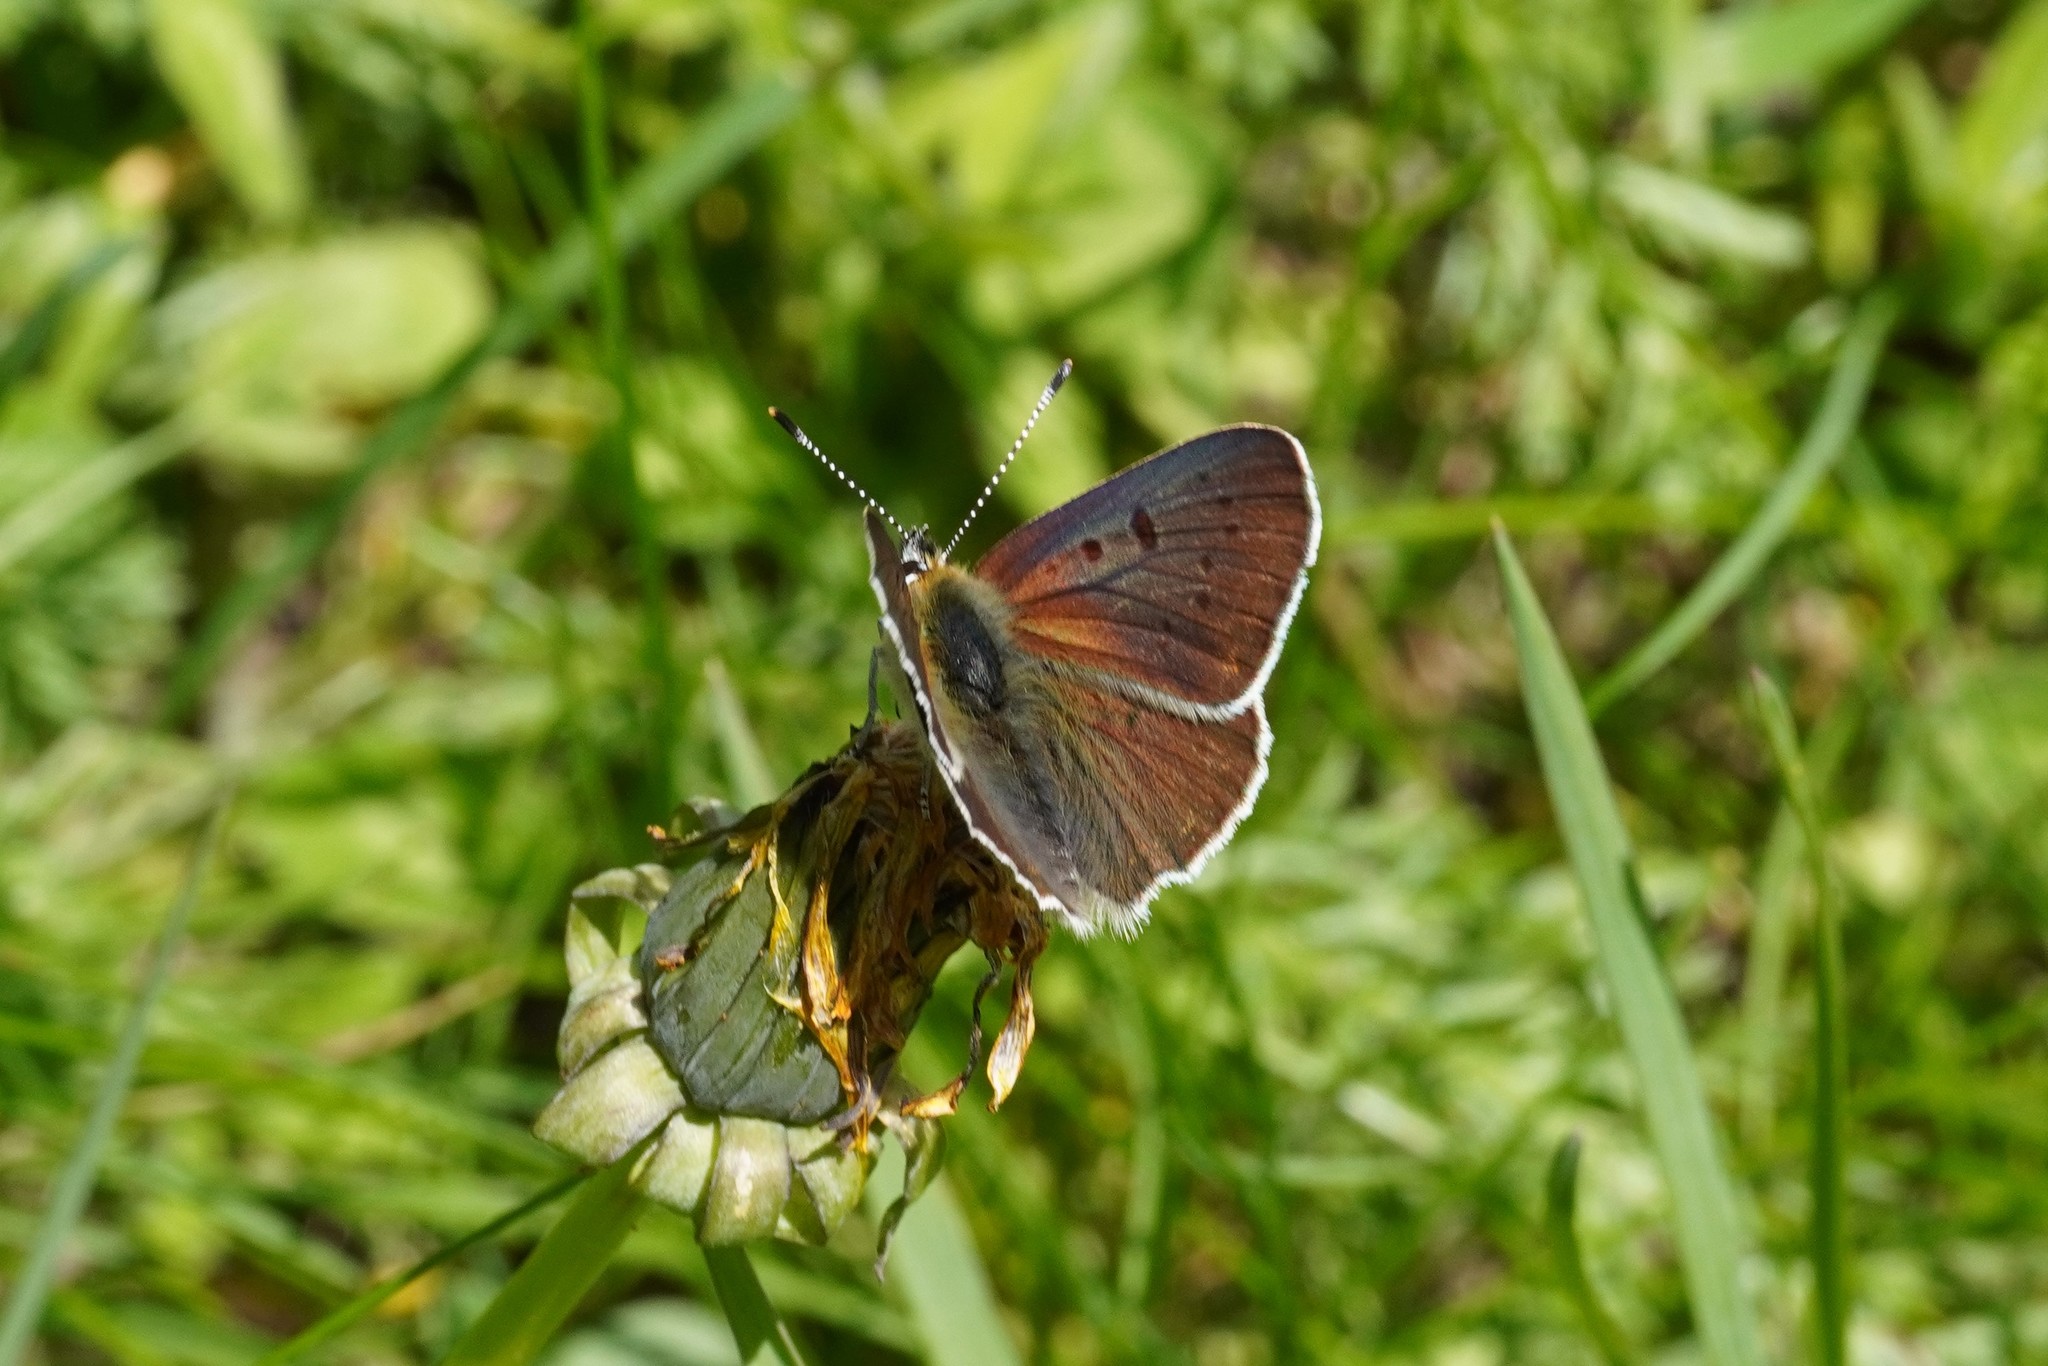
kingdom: Animalia
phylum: Arthropoda
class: Insecta
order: Lepidoptera
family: Lycaenidae
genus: Loweia
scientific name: Loweia tityrus
